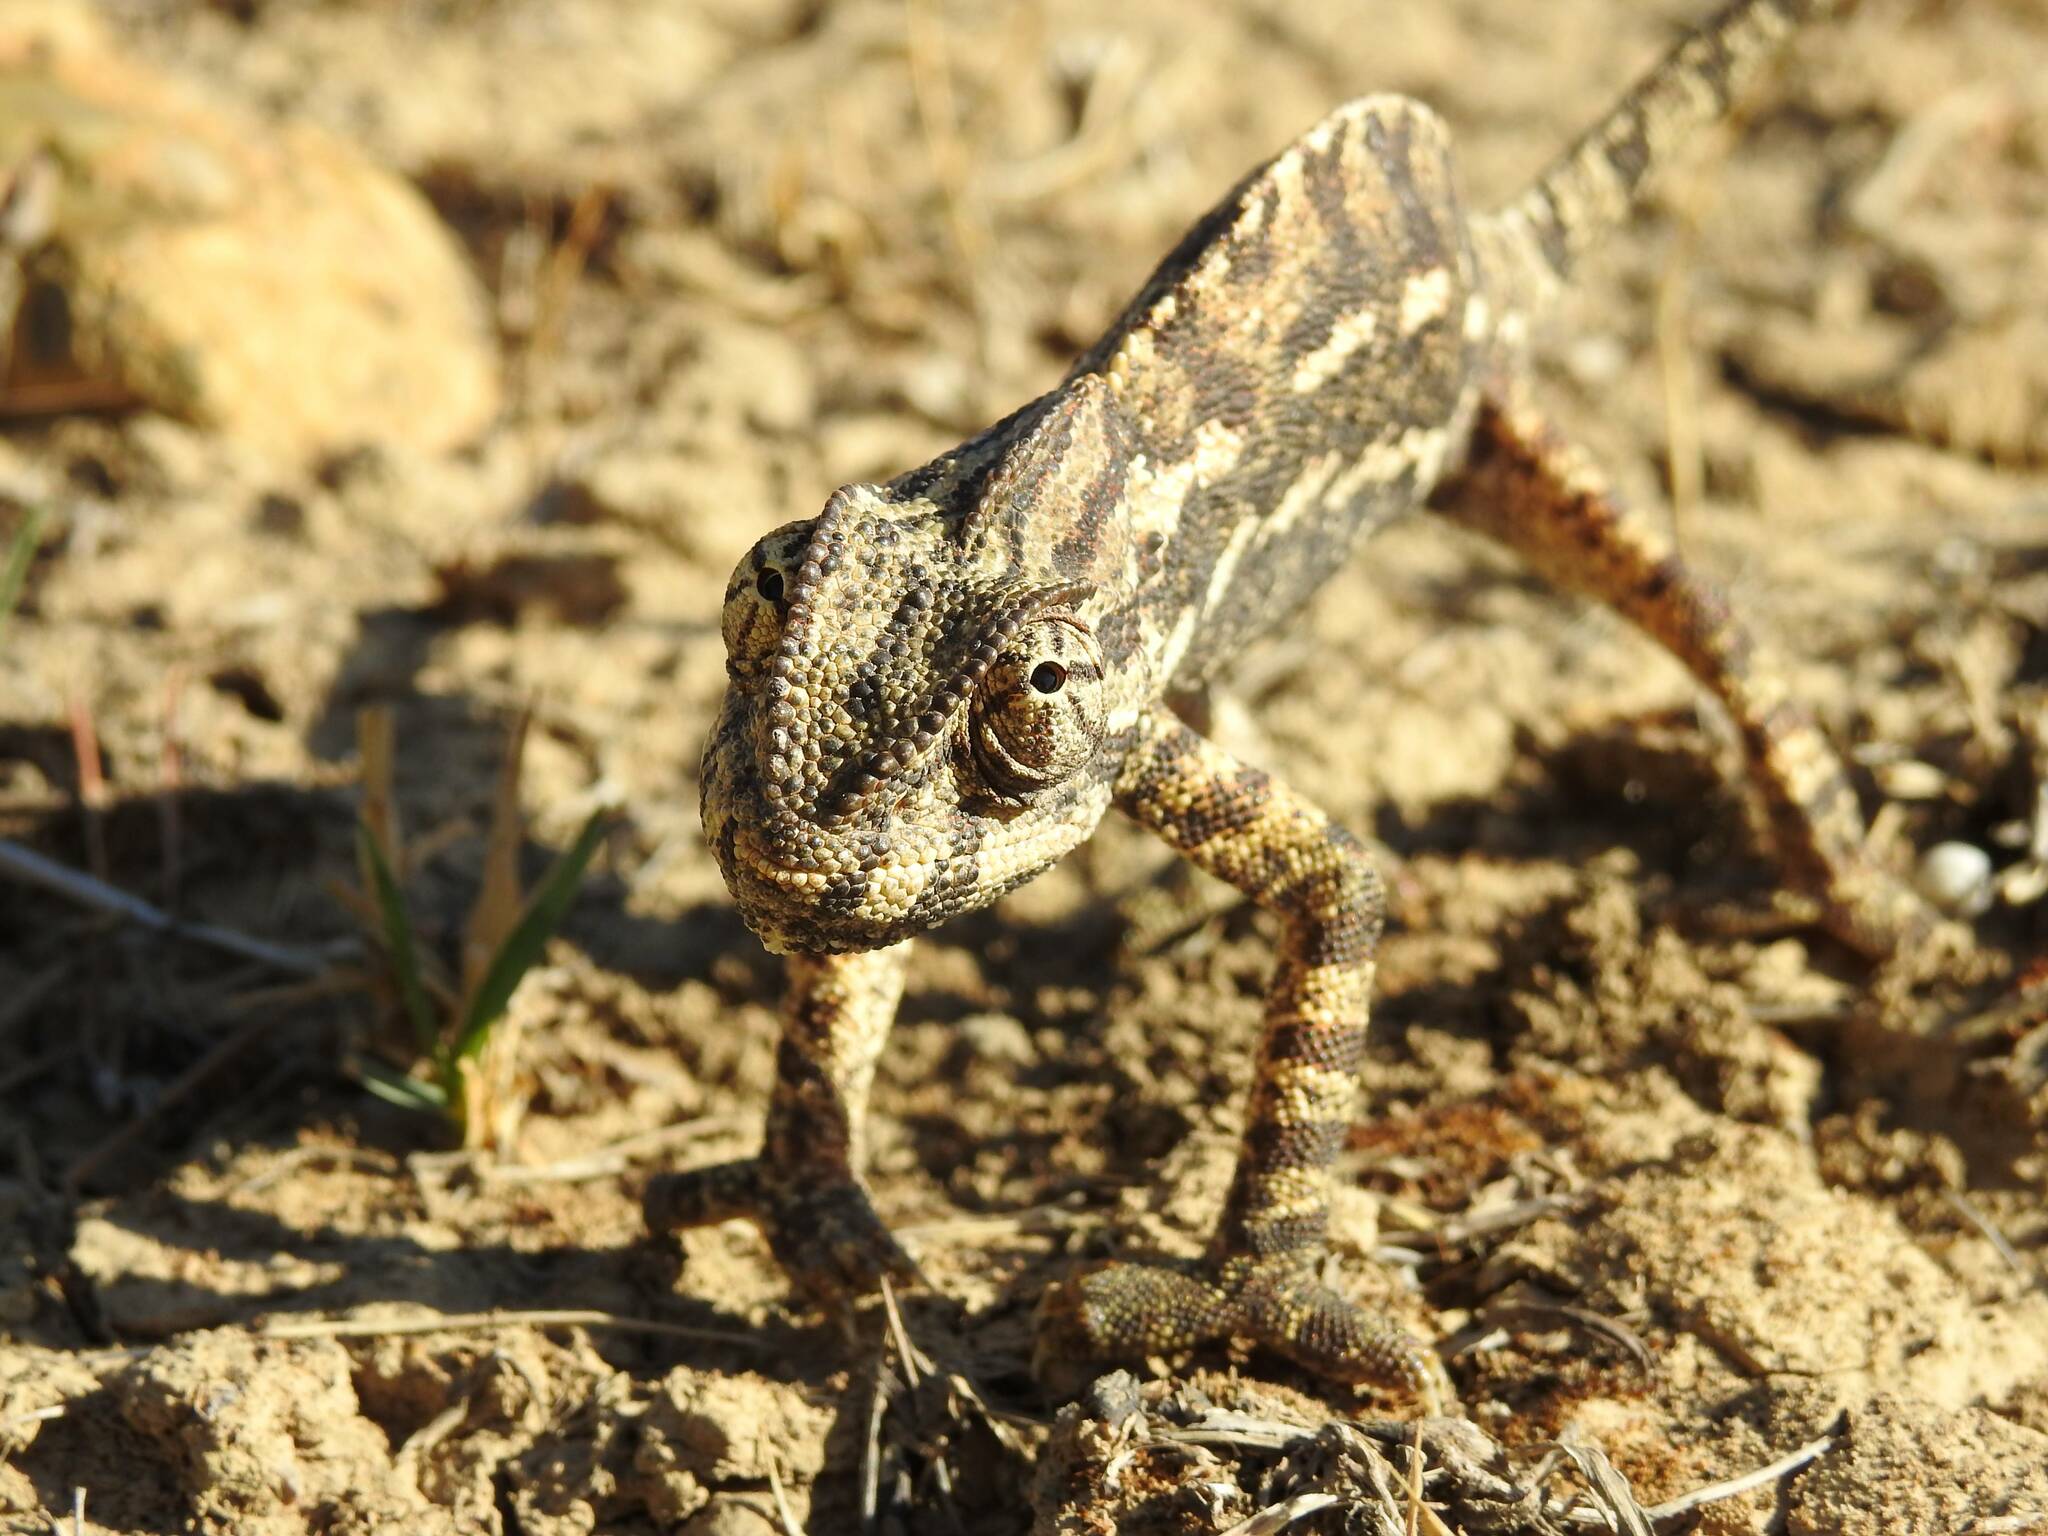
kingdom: Animalia
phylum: Chordata
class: Squamata
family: Chamaeleonidae
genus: Chamaeleo
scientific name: Chamaeleo chamaeleon
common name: Mediterranean chameleon
